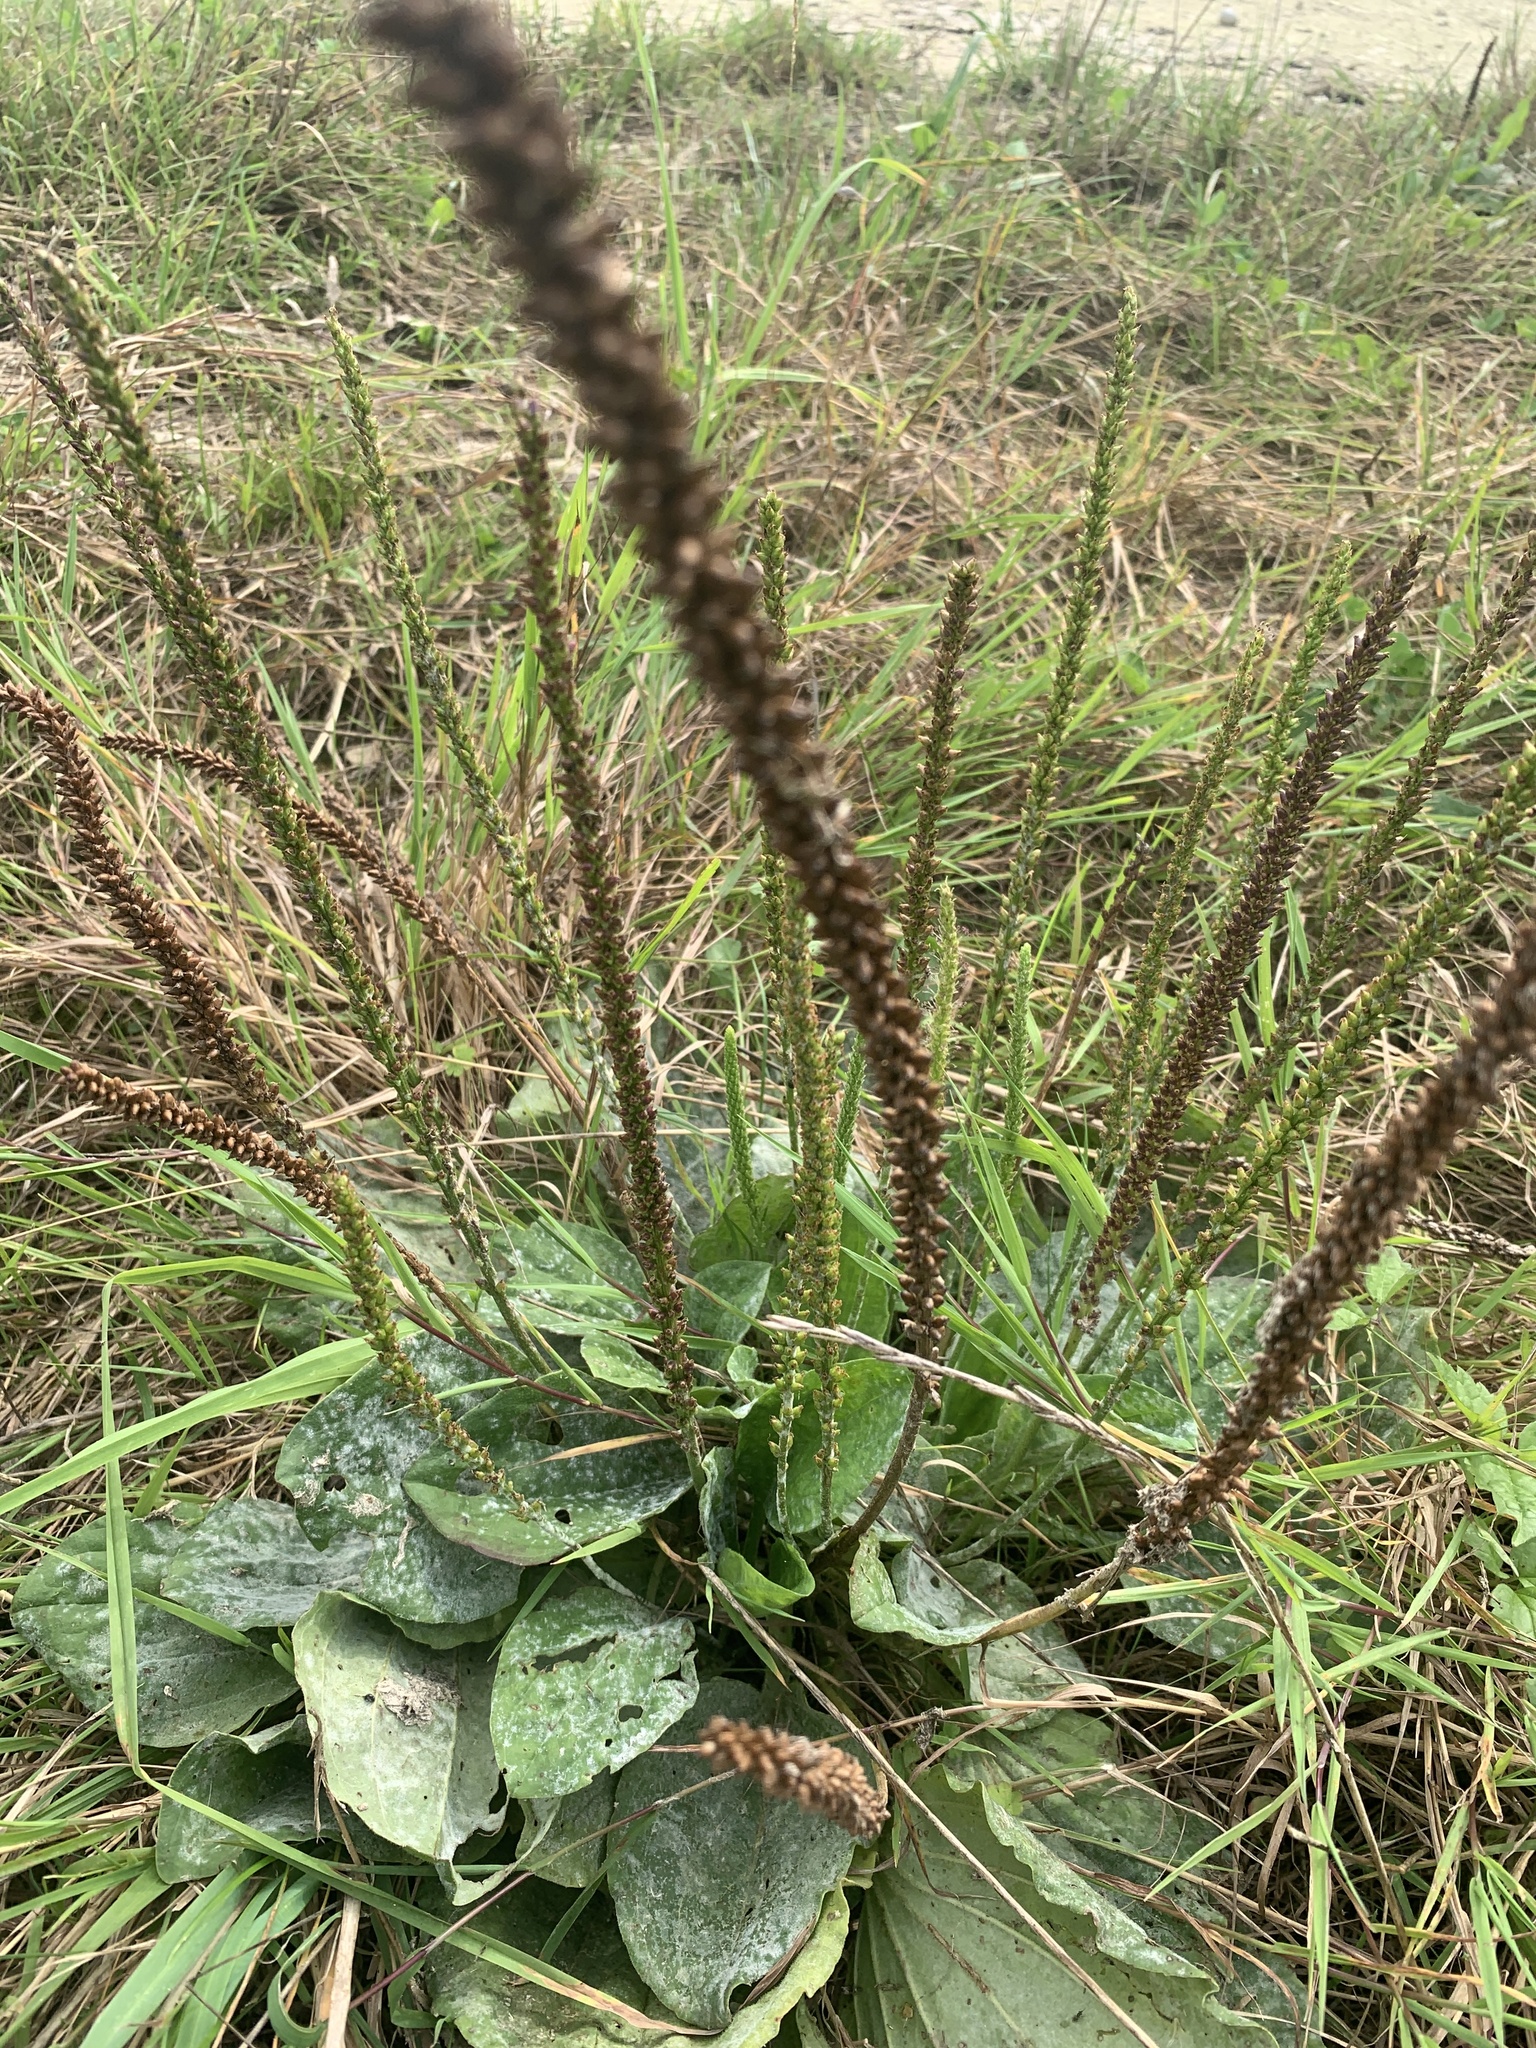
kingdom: Plantae
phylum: Tracheophyta
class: Magnoliopsida
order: Lamiales
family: Plantaginaceae
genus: Plantago
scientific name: Plantago major
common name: Common plantain
